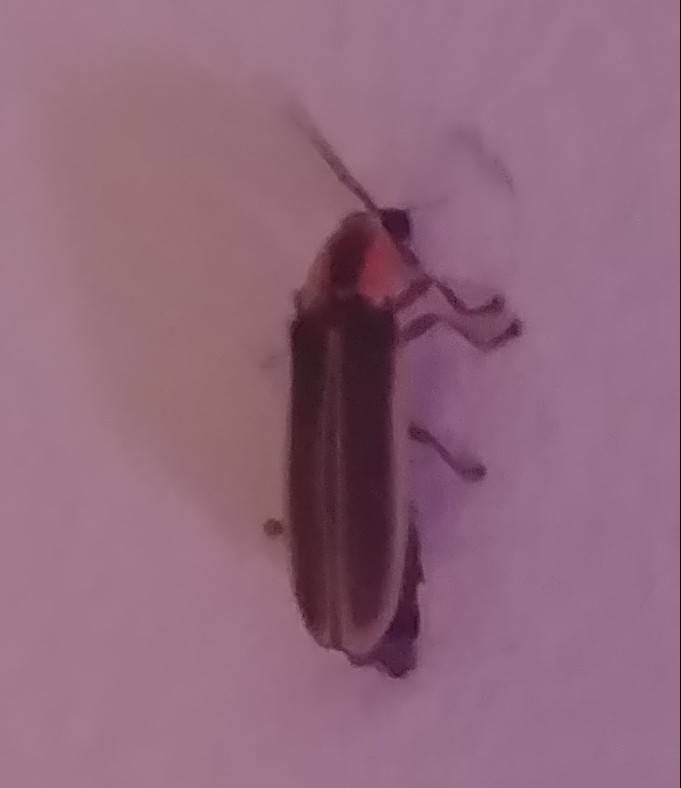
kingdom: Animalia
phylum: Arthropoda
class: Insecta
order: Coleoptera
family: Lampyridae
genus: Photinus
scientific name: Photinus ardens
